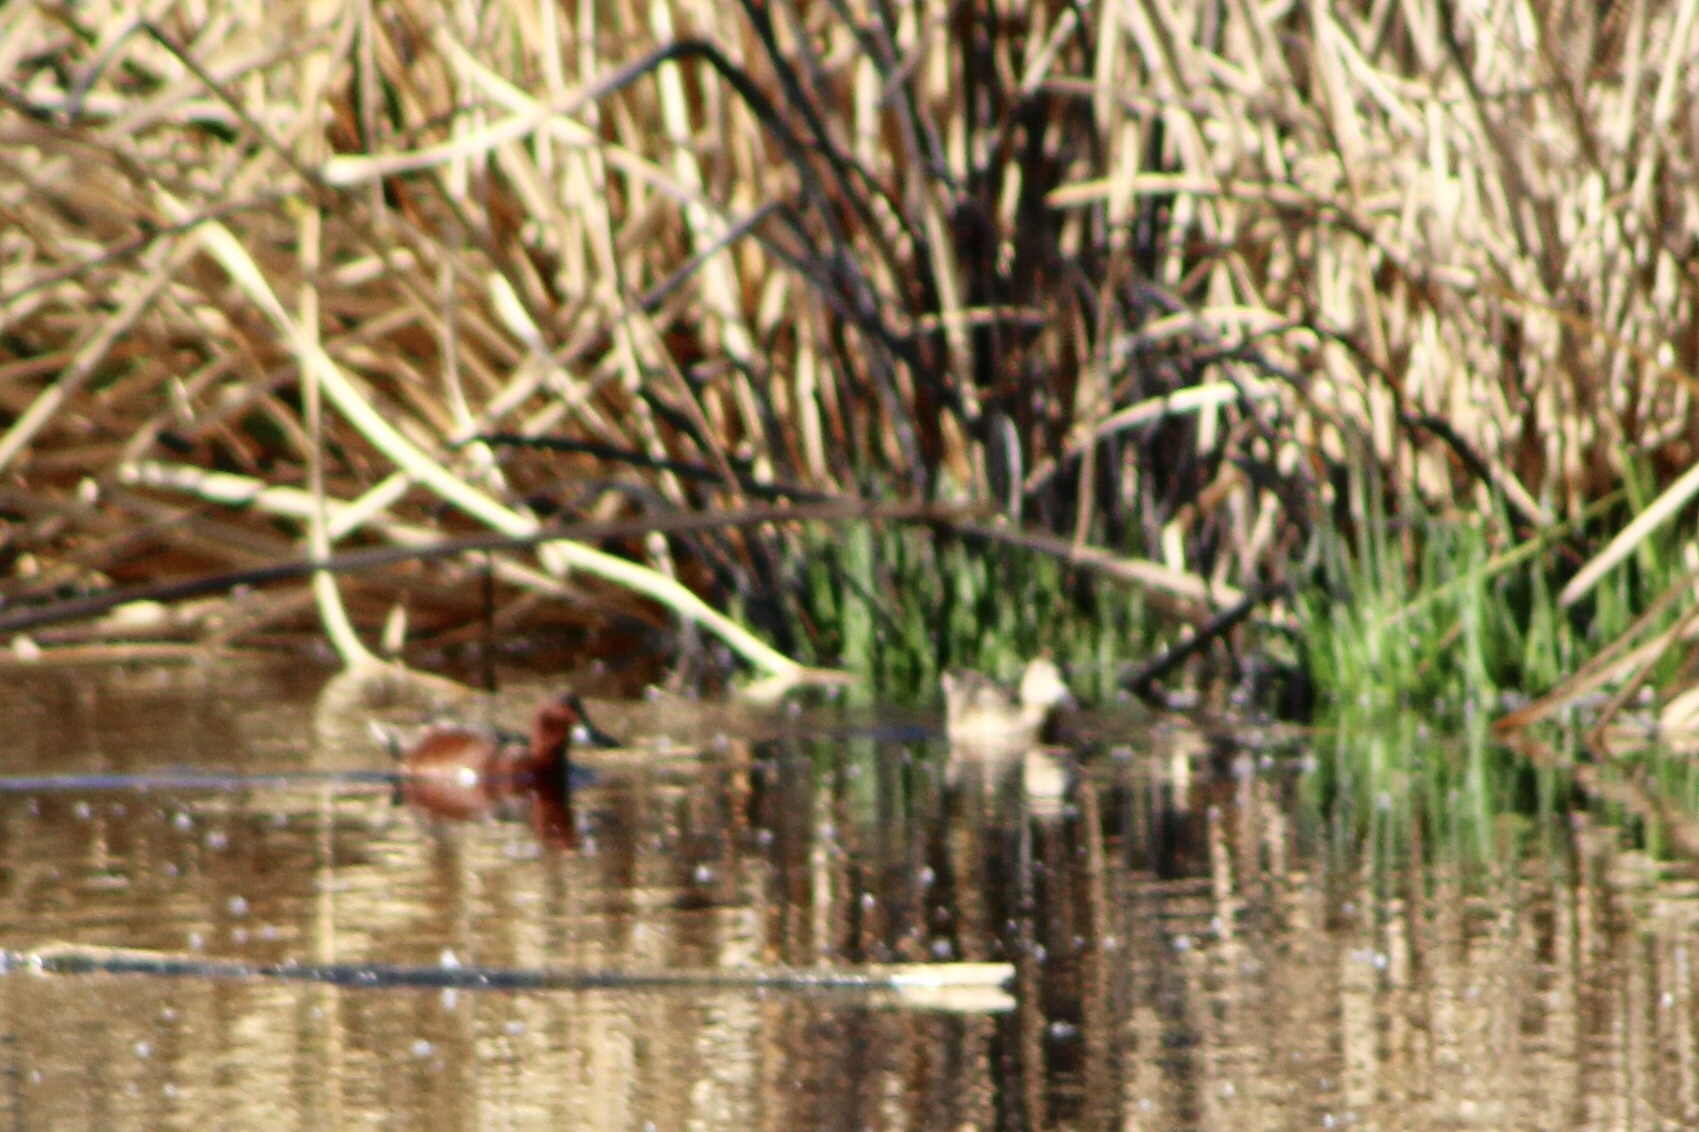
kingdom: Animalia
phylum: Chordata
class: Aves
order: Anseriformes
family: Anatidae
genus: Spatula
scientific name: Spatula cyanoptera
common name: Cinnamon teal
